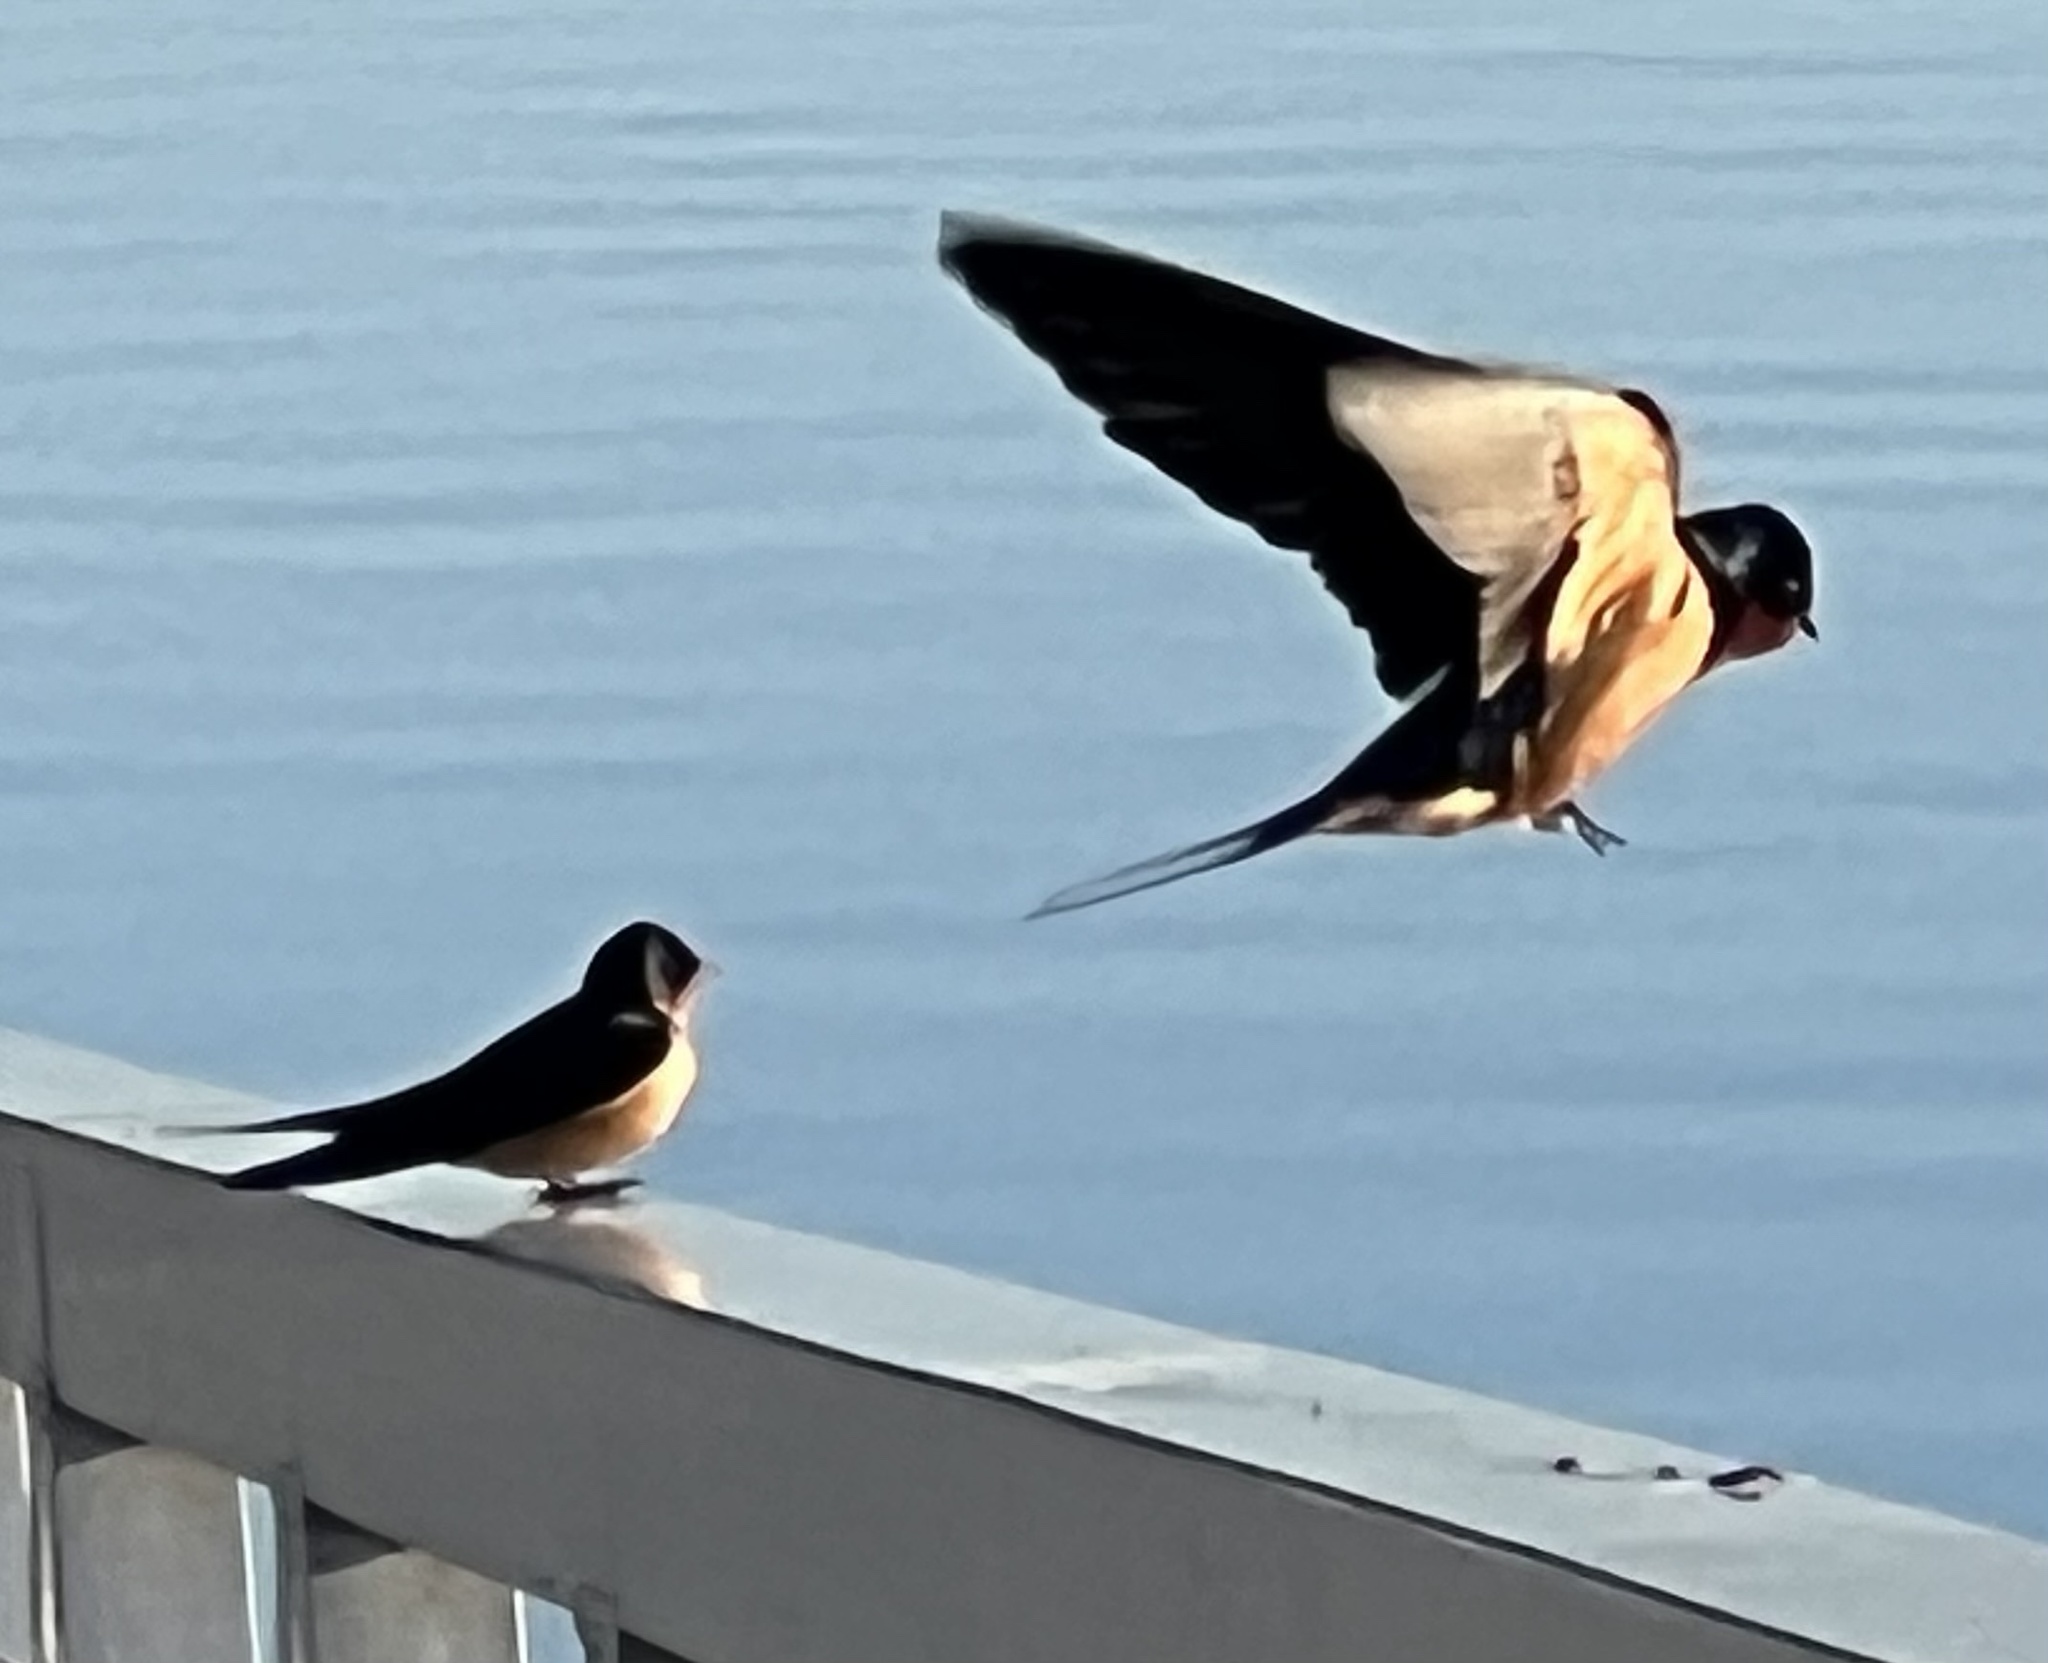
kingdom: Animalia
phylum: Chordata
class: Aves
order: Passeriformes
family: Hirundinidae
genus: Hirundo
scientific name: Hirundo rustica
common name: Barn swallow
